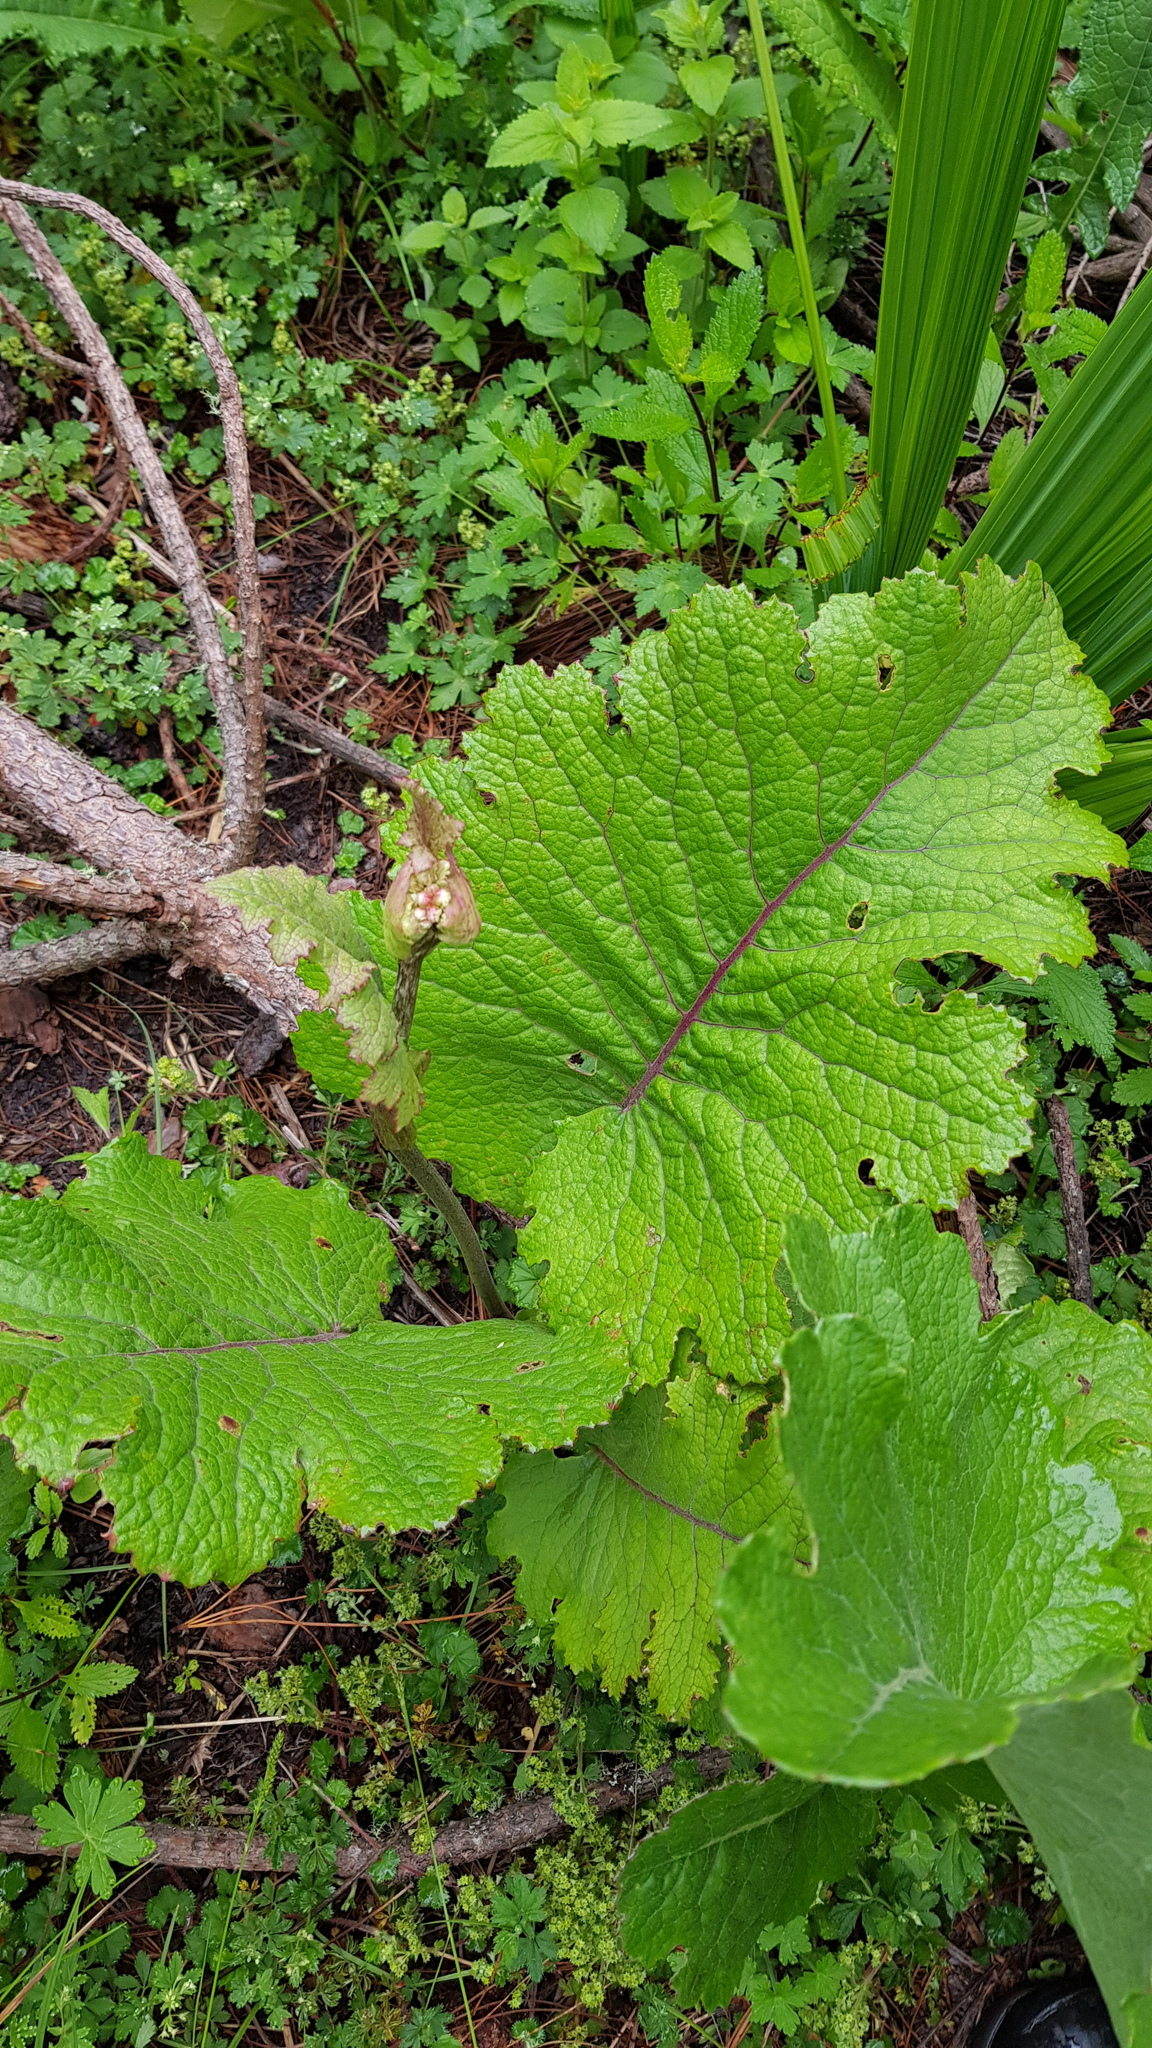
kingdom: Plantae
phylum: Tracheophyta
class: Magnoliopsida
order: Asterales
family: Asteraceae
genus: Psacalium
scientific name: Psacalium amplifolium
